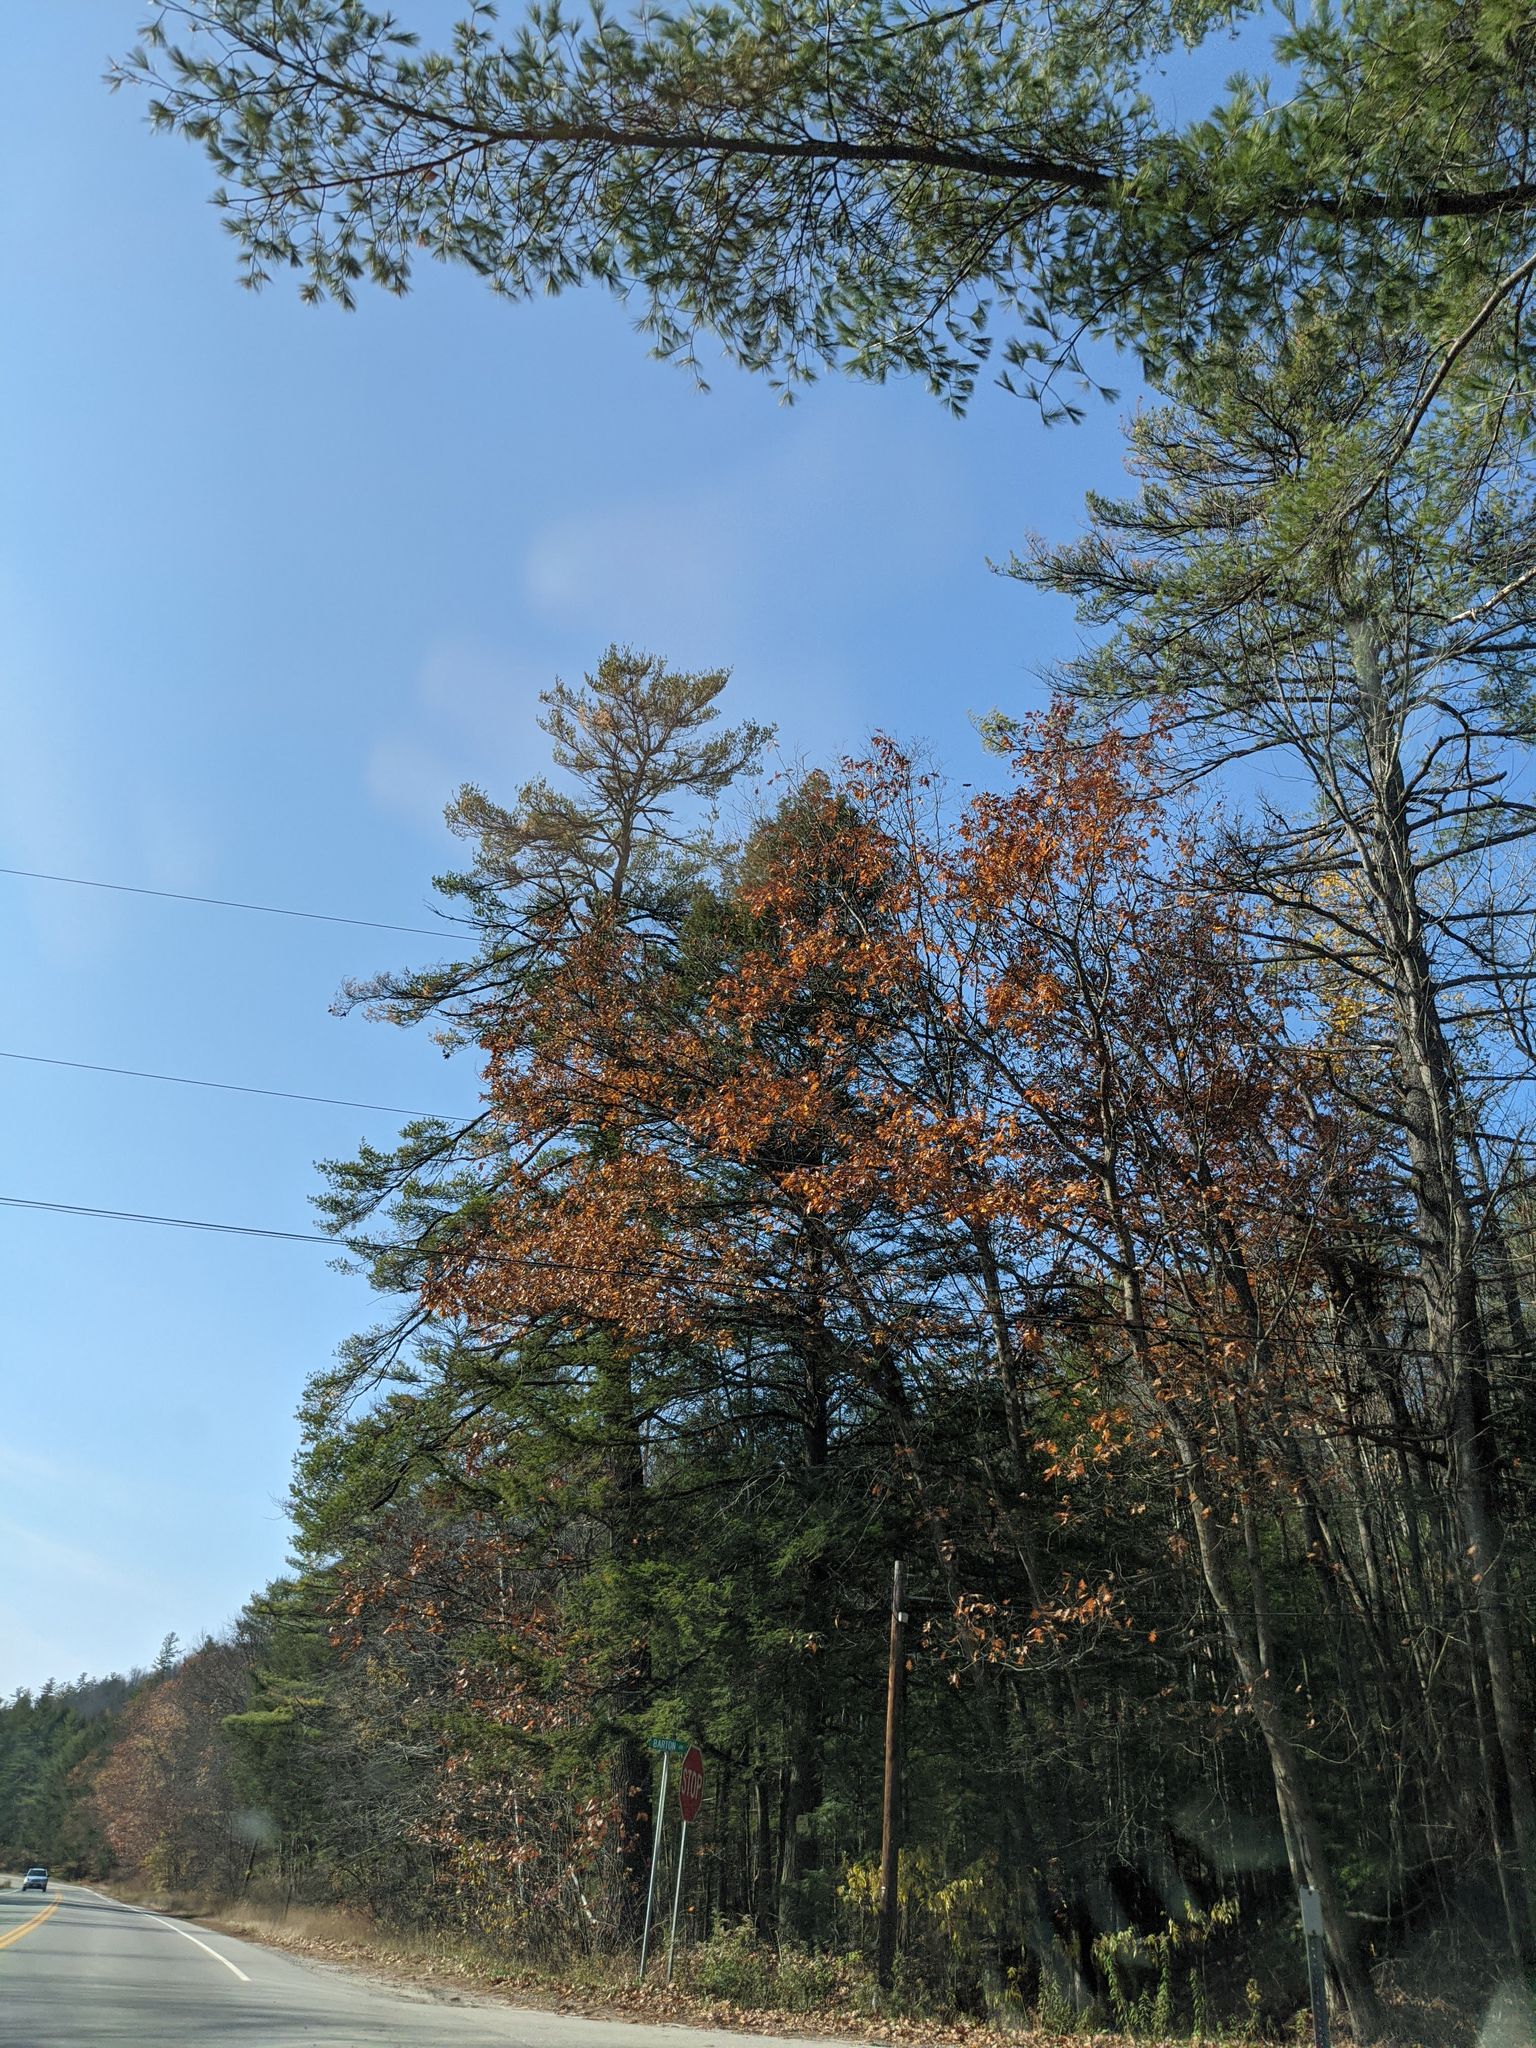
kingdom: Plantae
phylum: Tracheophyta
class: Pinopsida
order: Pinales
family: Pinaceae
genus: Pinus
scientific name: Pinus strobus
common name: Weymouth pine
